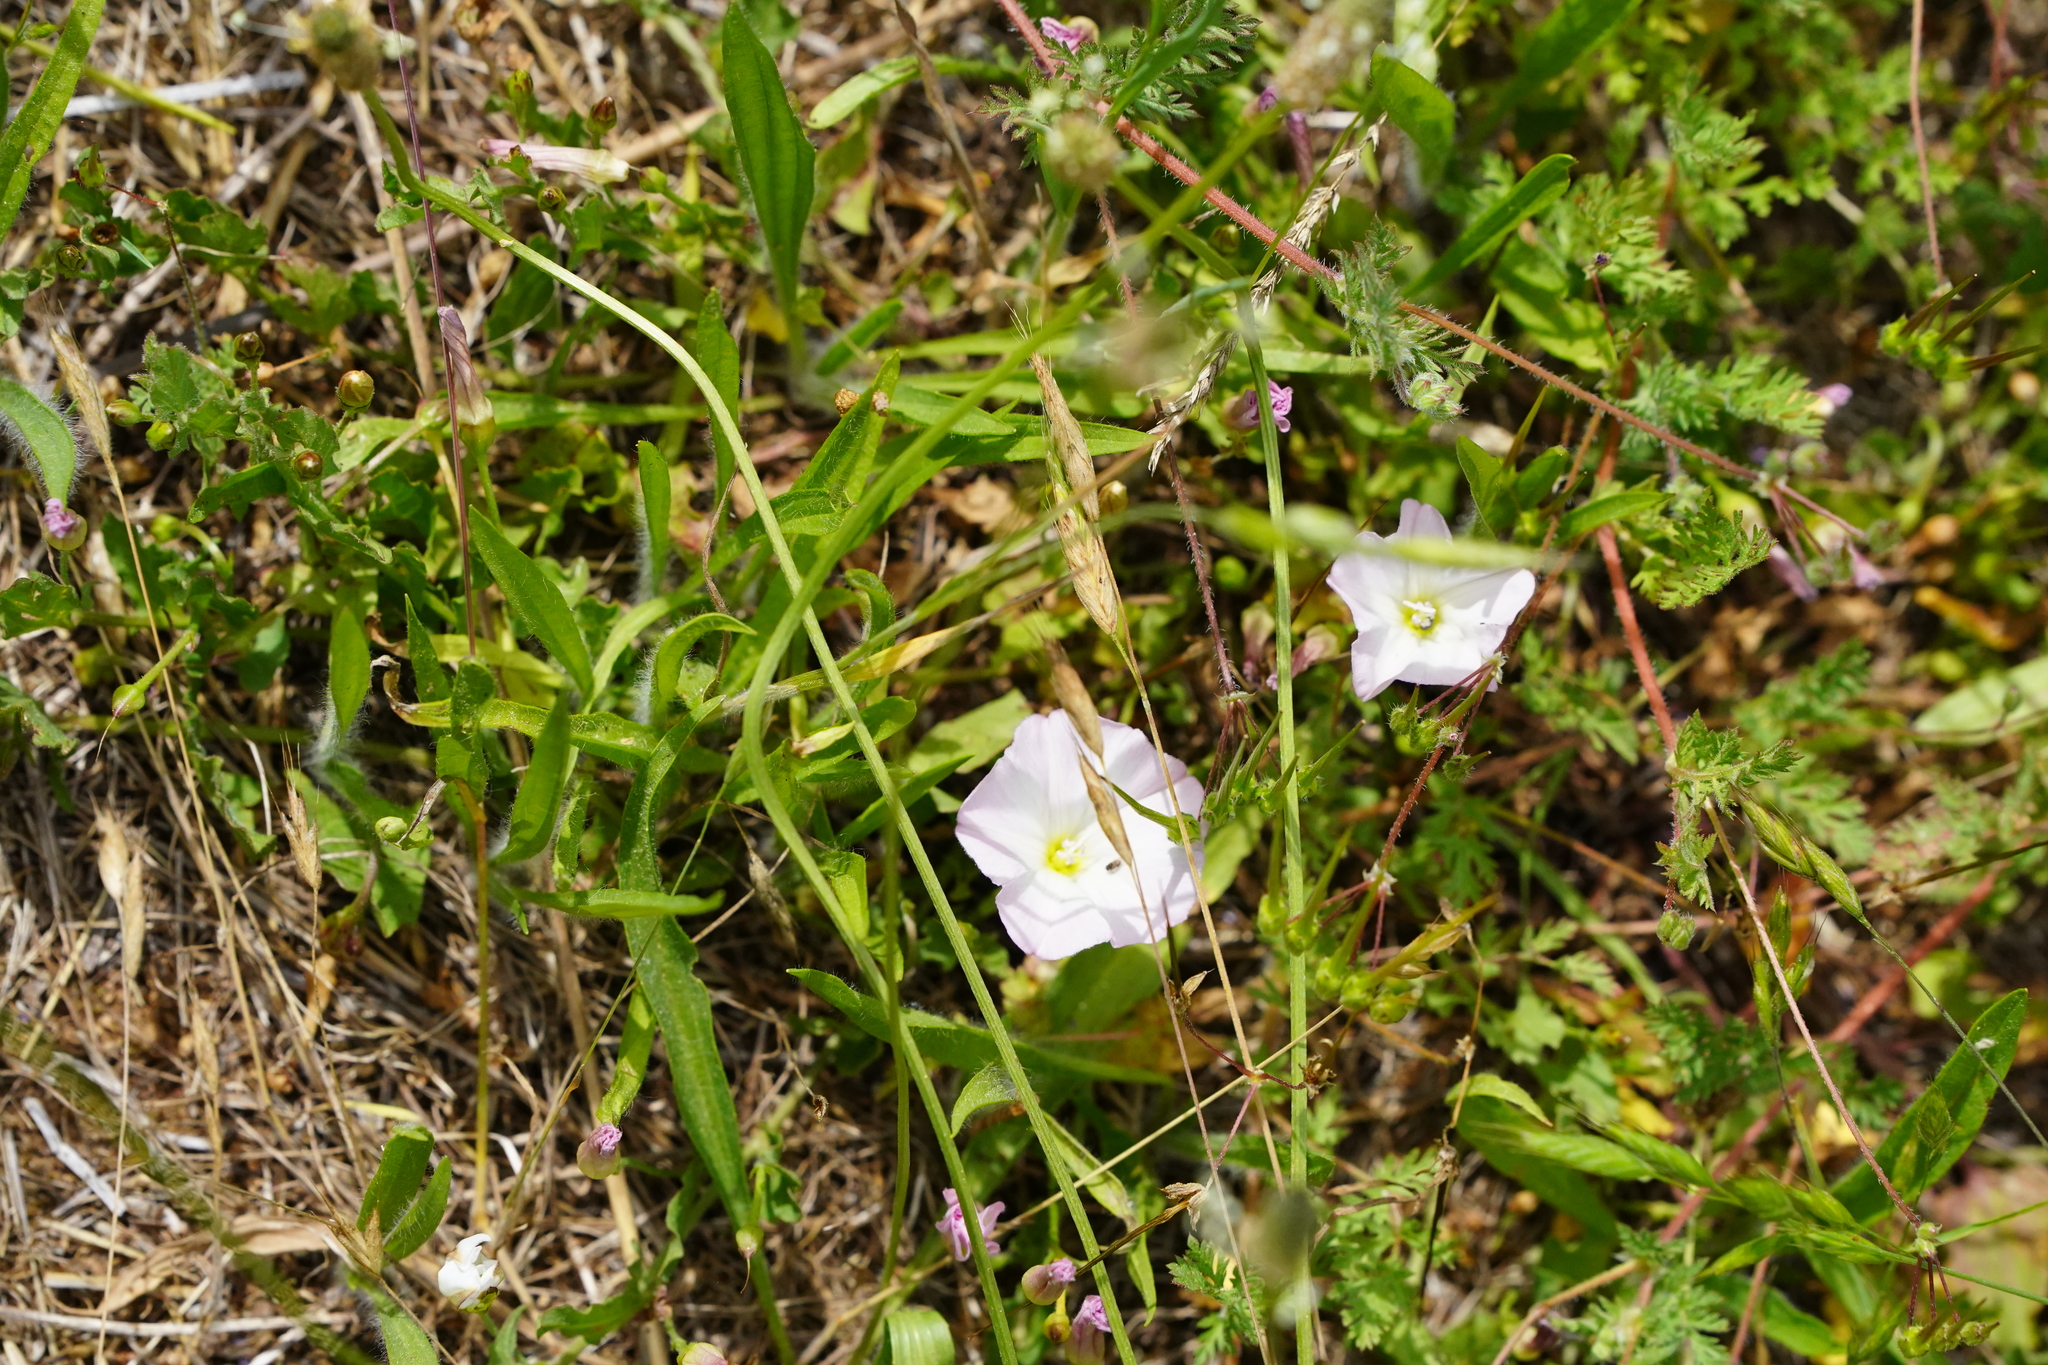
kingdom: Plantae
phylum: Tracheophyta
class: Magnoliopsida
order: Solanales
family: Convolvulaceae
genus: Convolvulus
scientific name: Convolvulus arvensis
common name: Field bindweed
